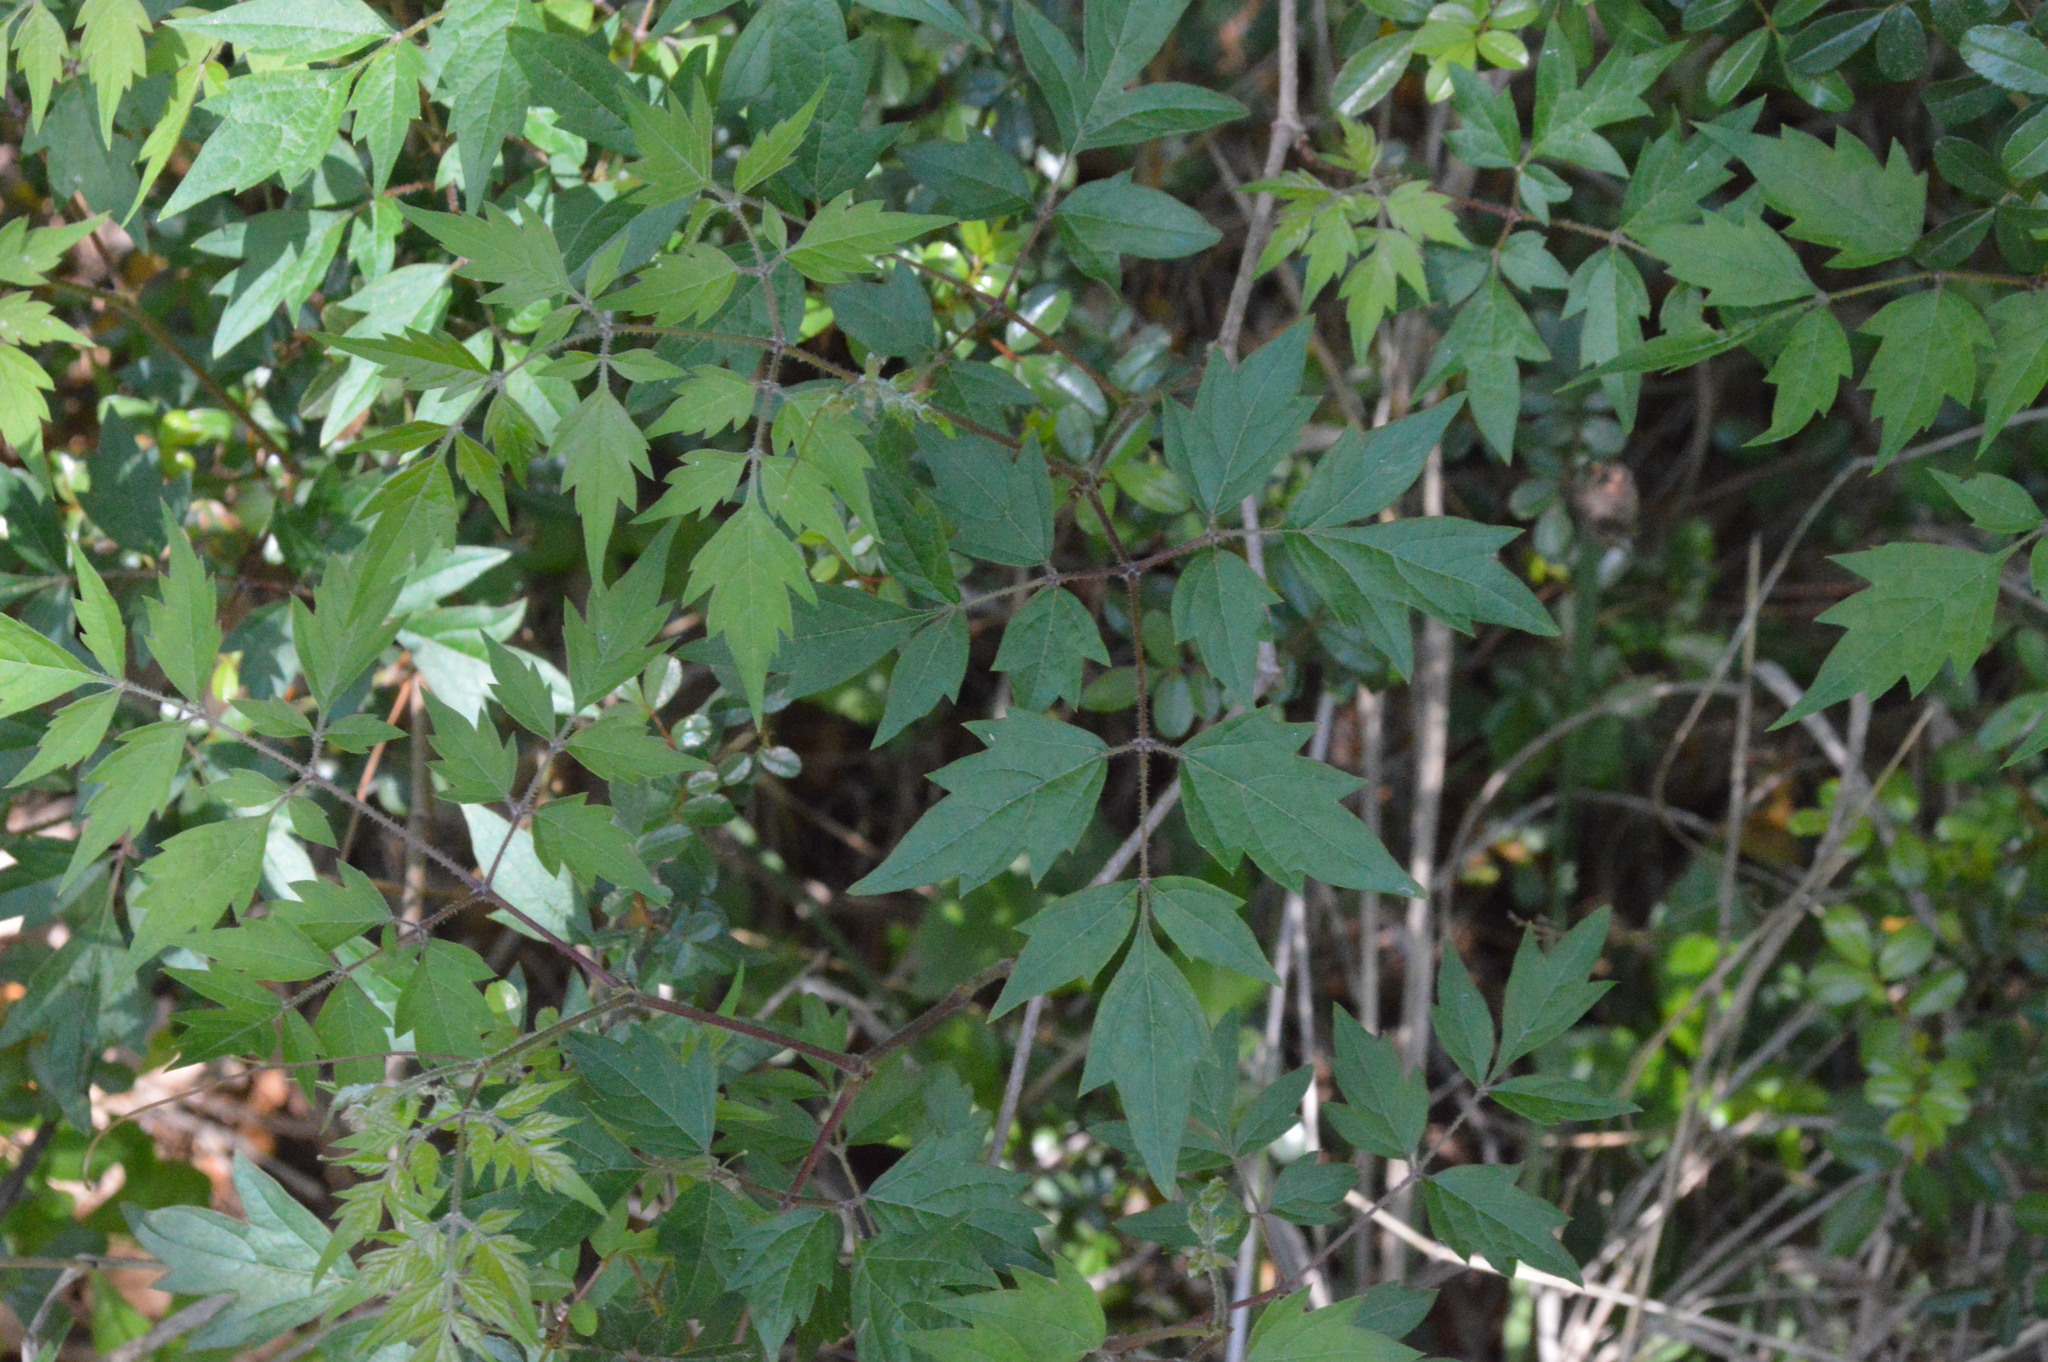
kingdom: Plantae
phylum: Tracheophyta
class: Magnoliopsida
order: Vitales
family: Vitaceae
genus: Nekemias
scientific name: Nekemias arborea
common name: Peppervine
